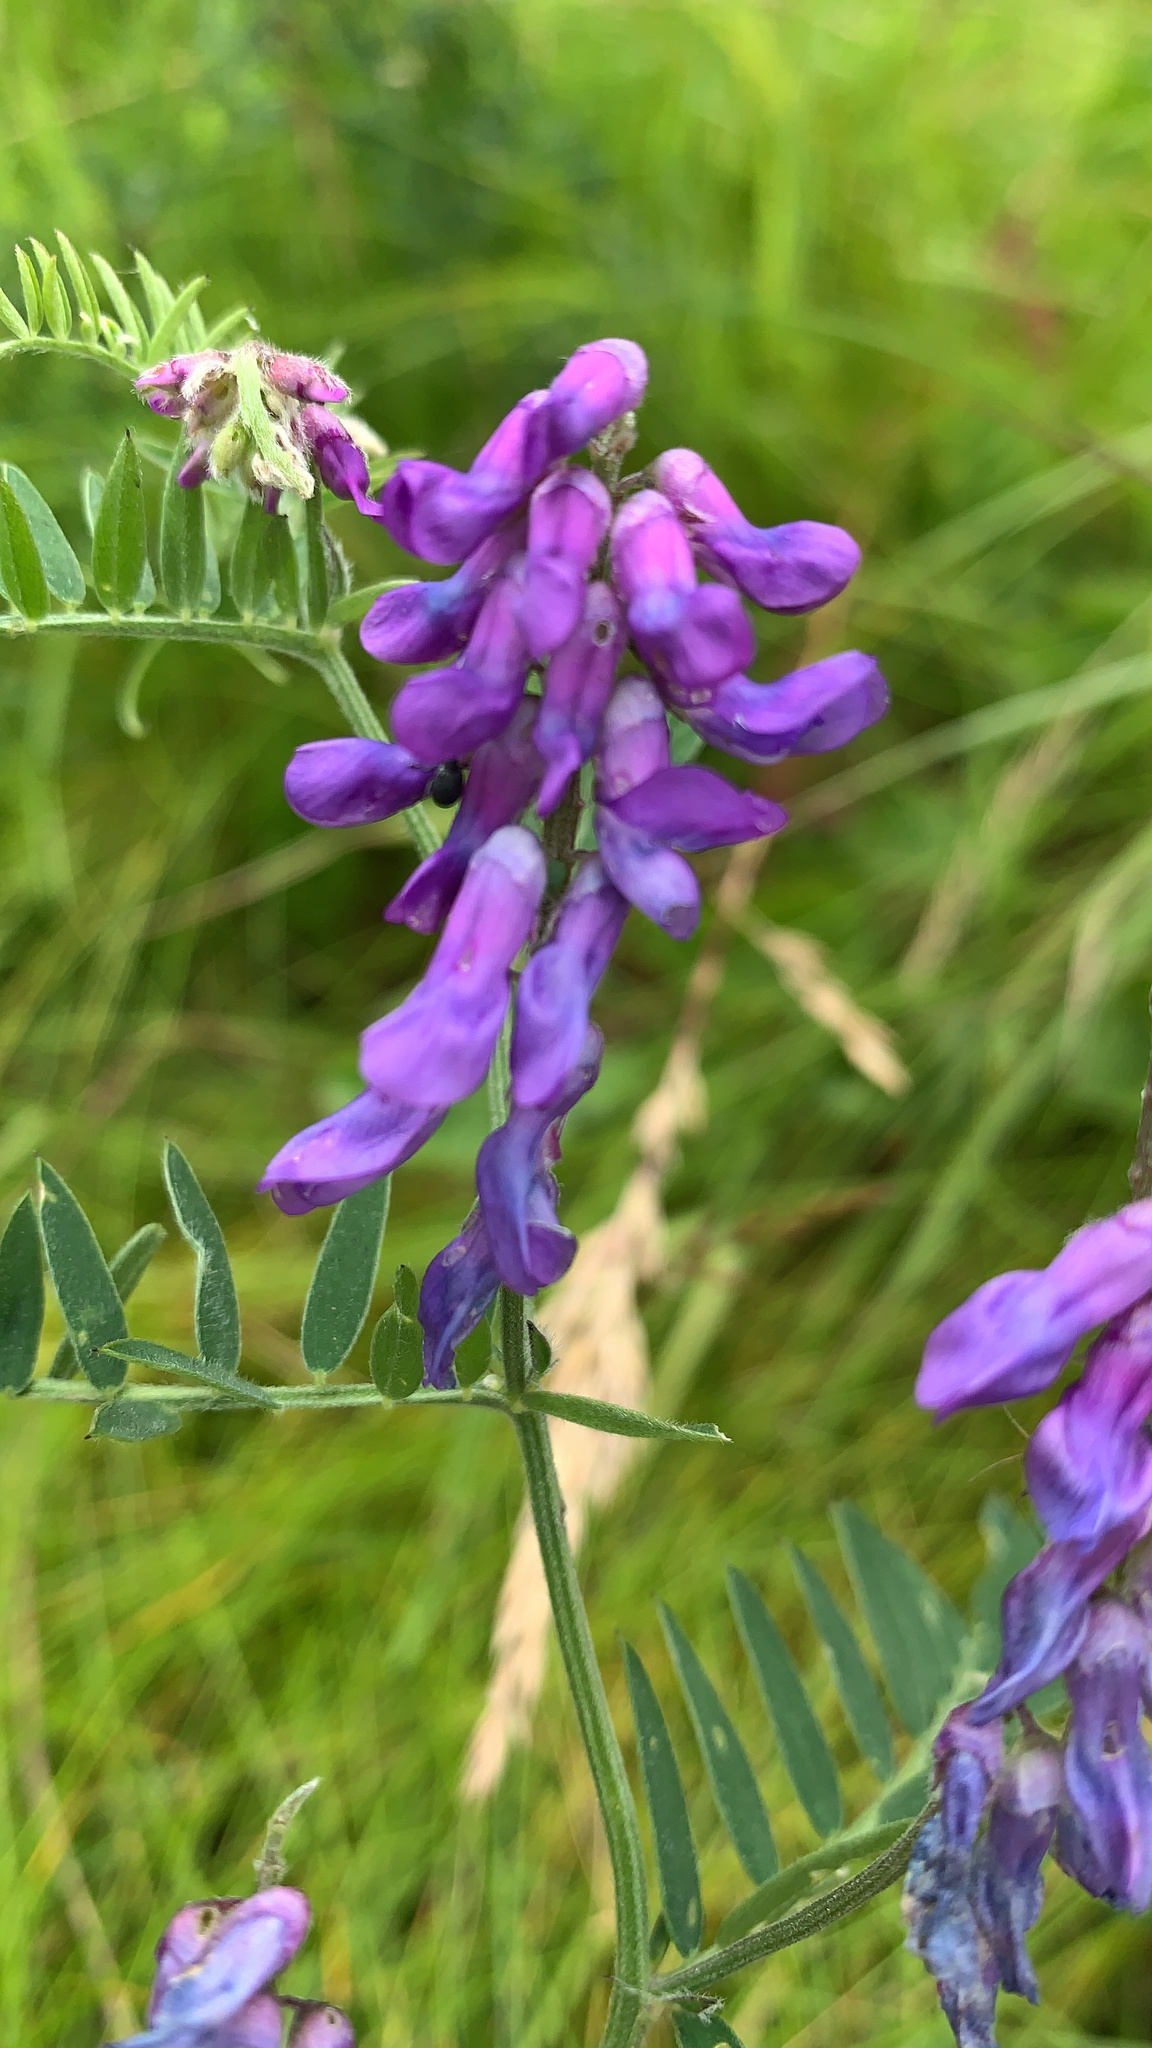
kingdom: Plantae
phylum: Tracheophyta
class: Magnoliopsida
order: Fabales
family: Fabaceae
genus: Vicia
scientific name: Vicia cracca
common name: Bird vetch
